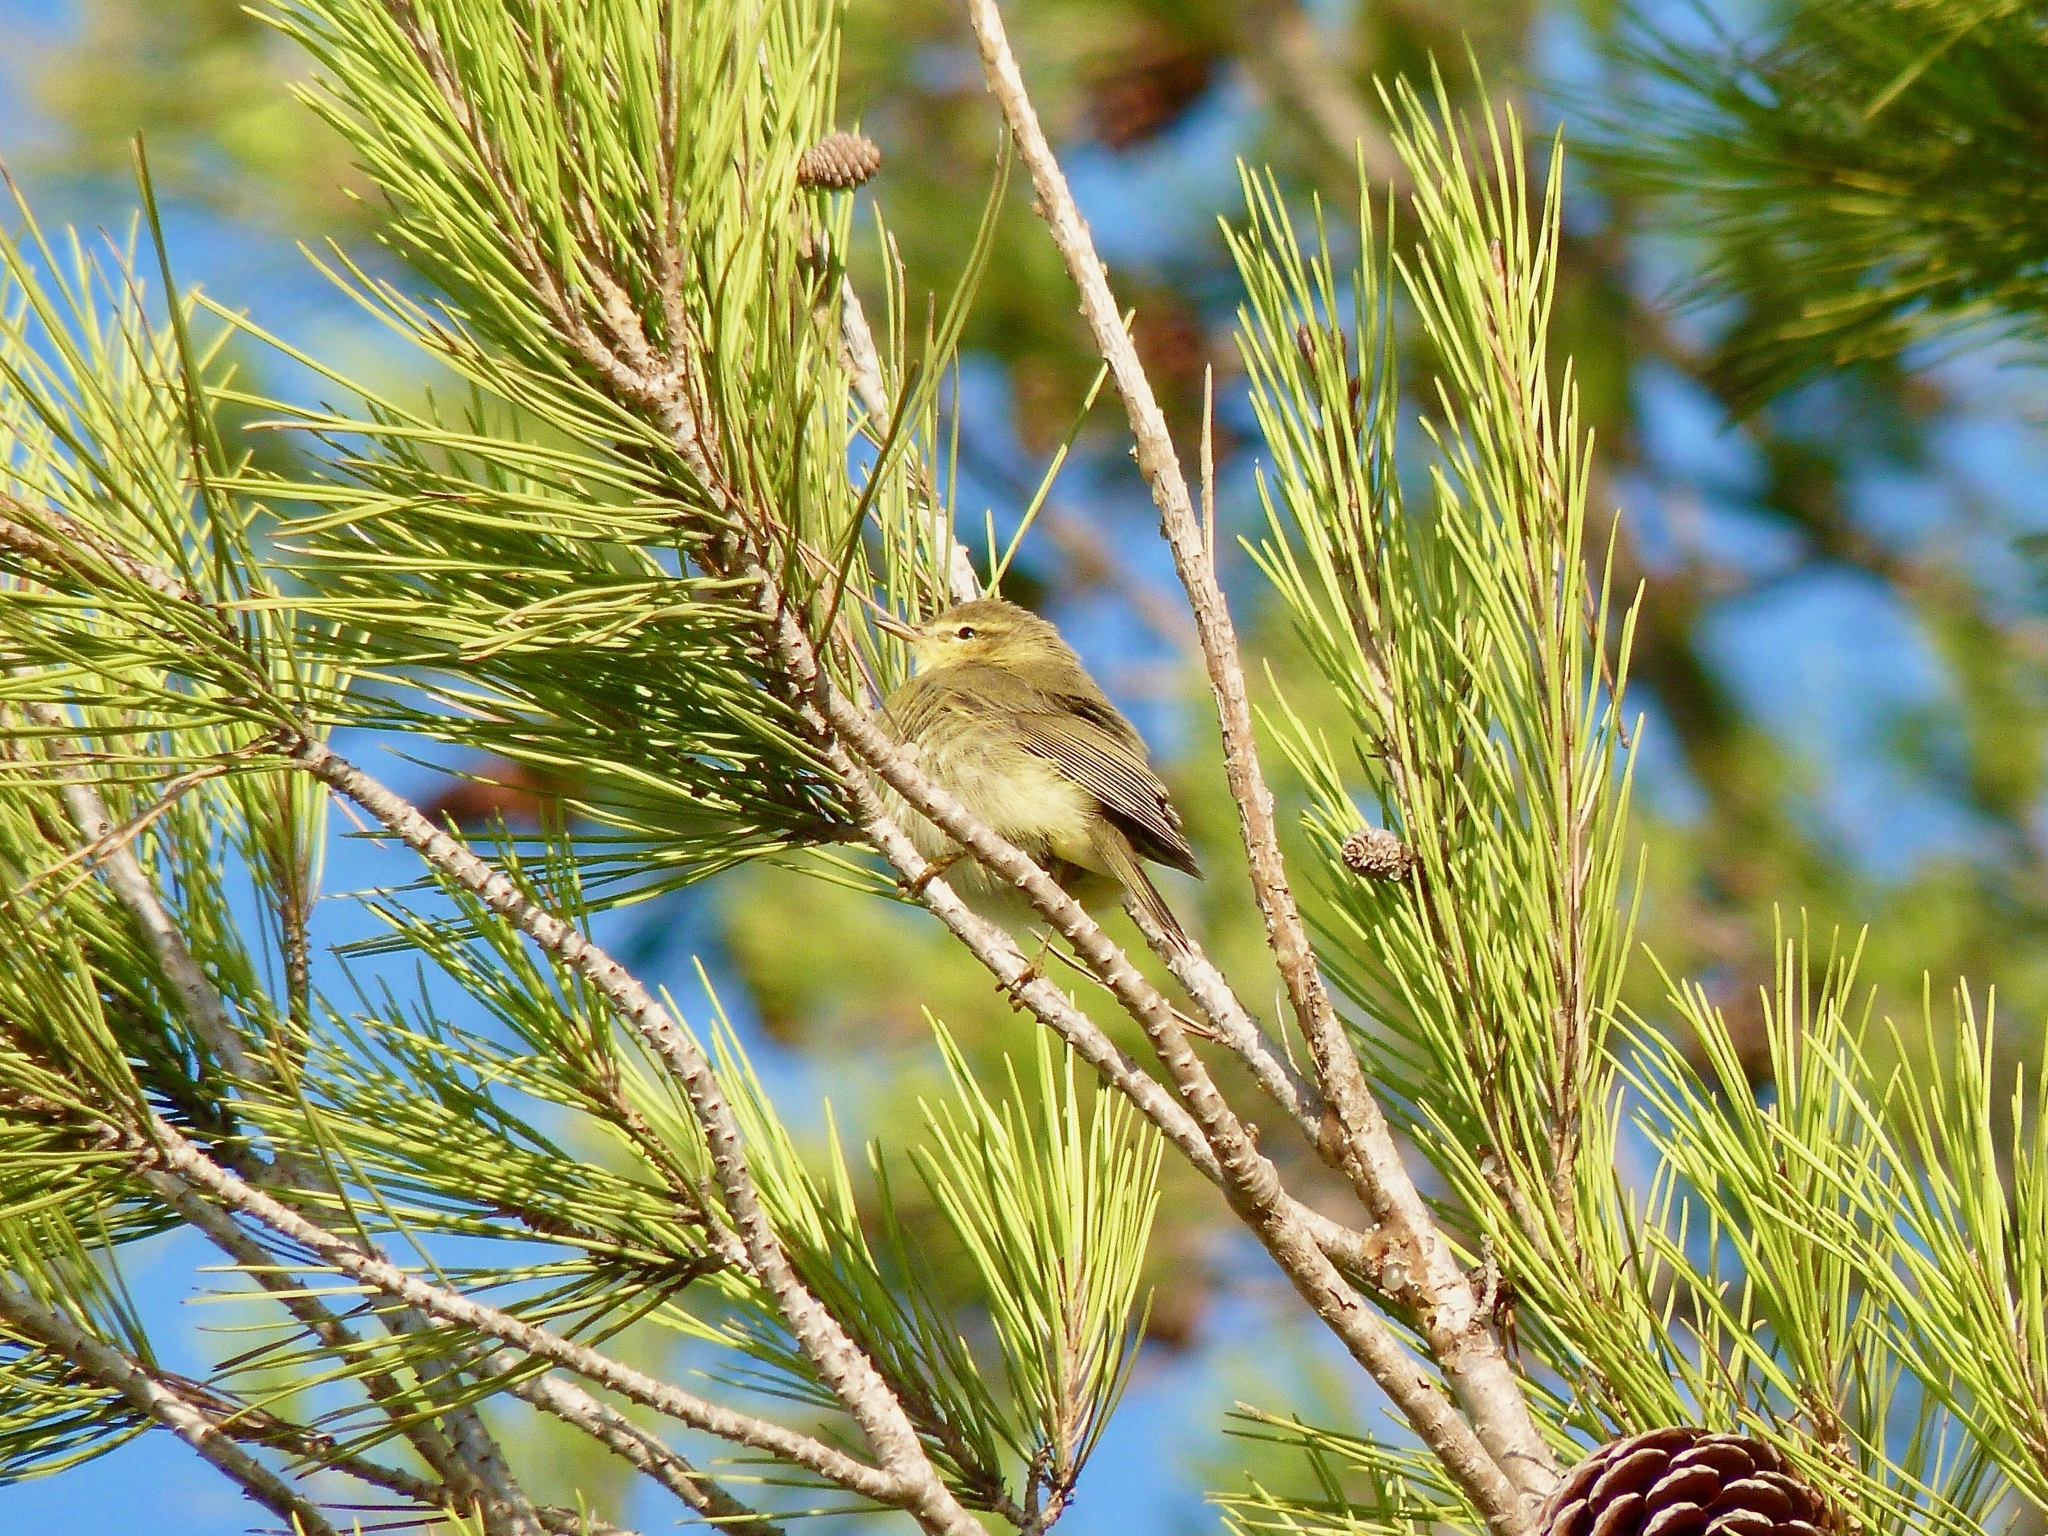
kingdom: Animalia
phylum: Chordata
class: Aves
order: Passeriformes
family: Phylloscopidae
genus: Phylloscopus
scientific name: Phylloscopus trochilus
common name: Willow warbler
